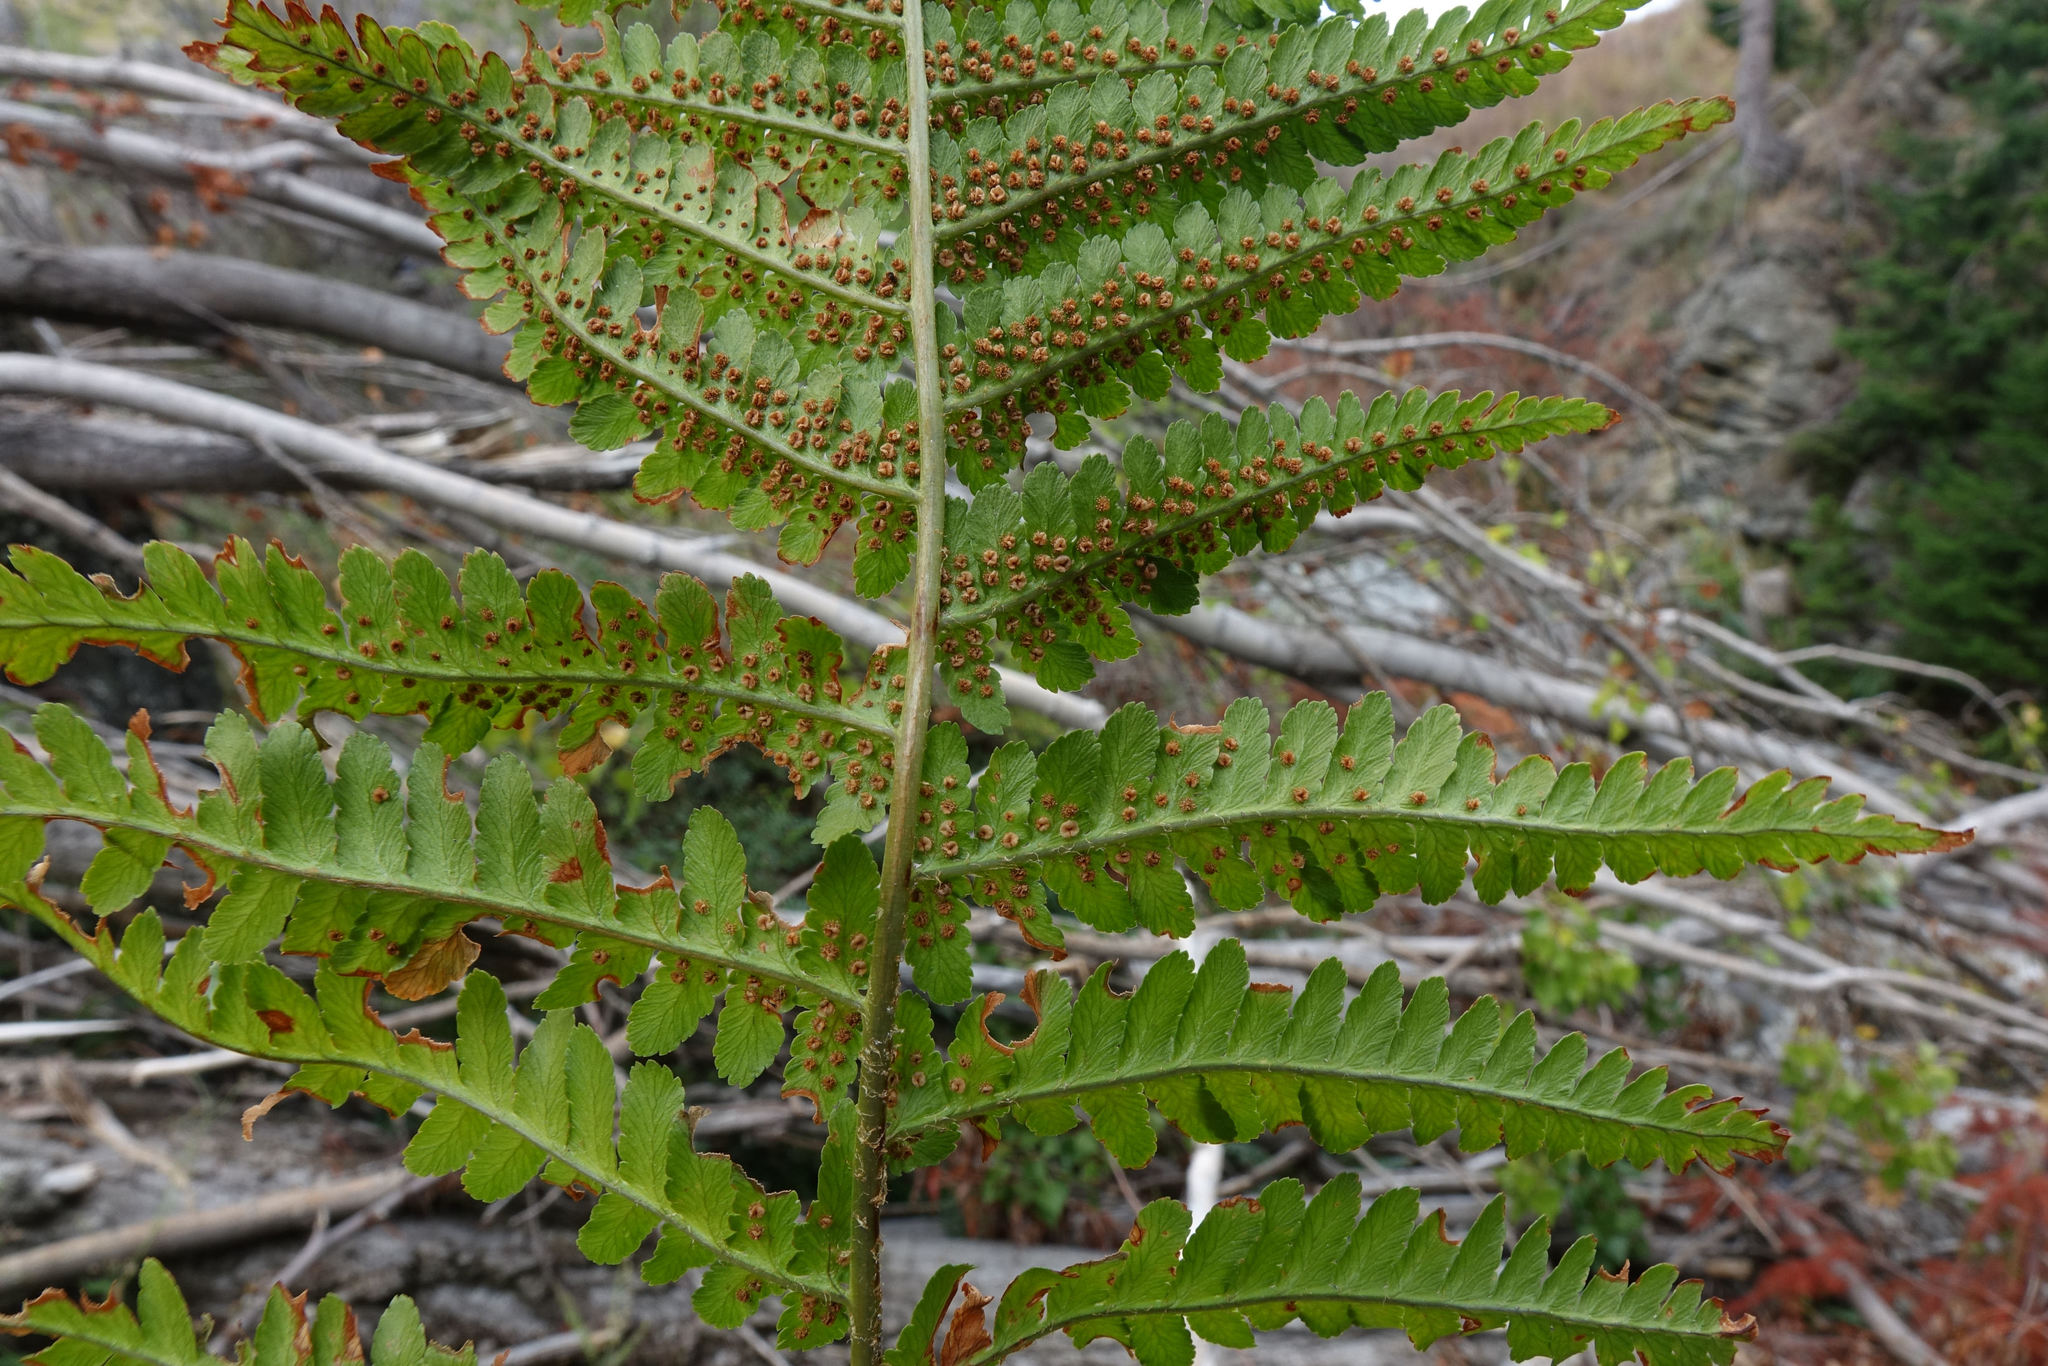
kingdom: Plantae
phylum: Tracheophyta
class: Polypodiopsida
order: Polypodiales
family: Dryopteridaceae
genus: Dryopteris
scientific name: Dryopteris filix-mas
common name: Male fern
